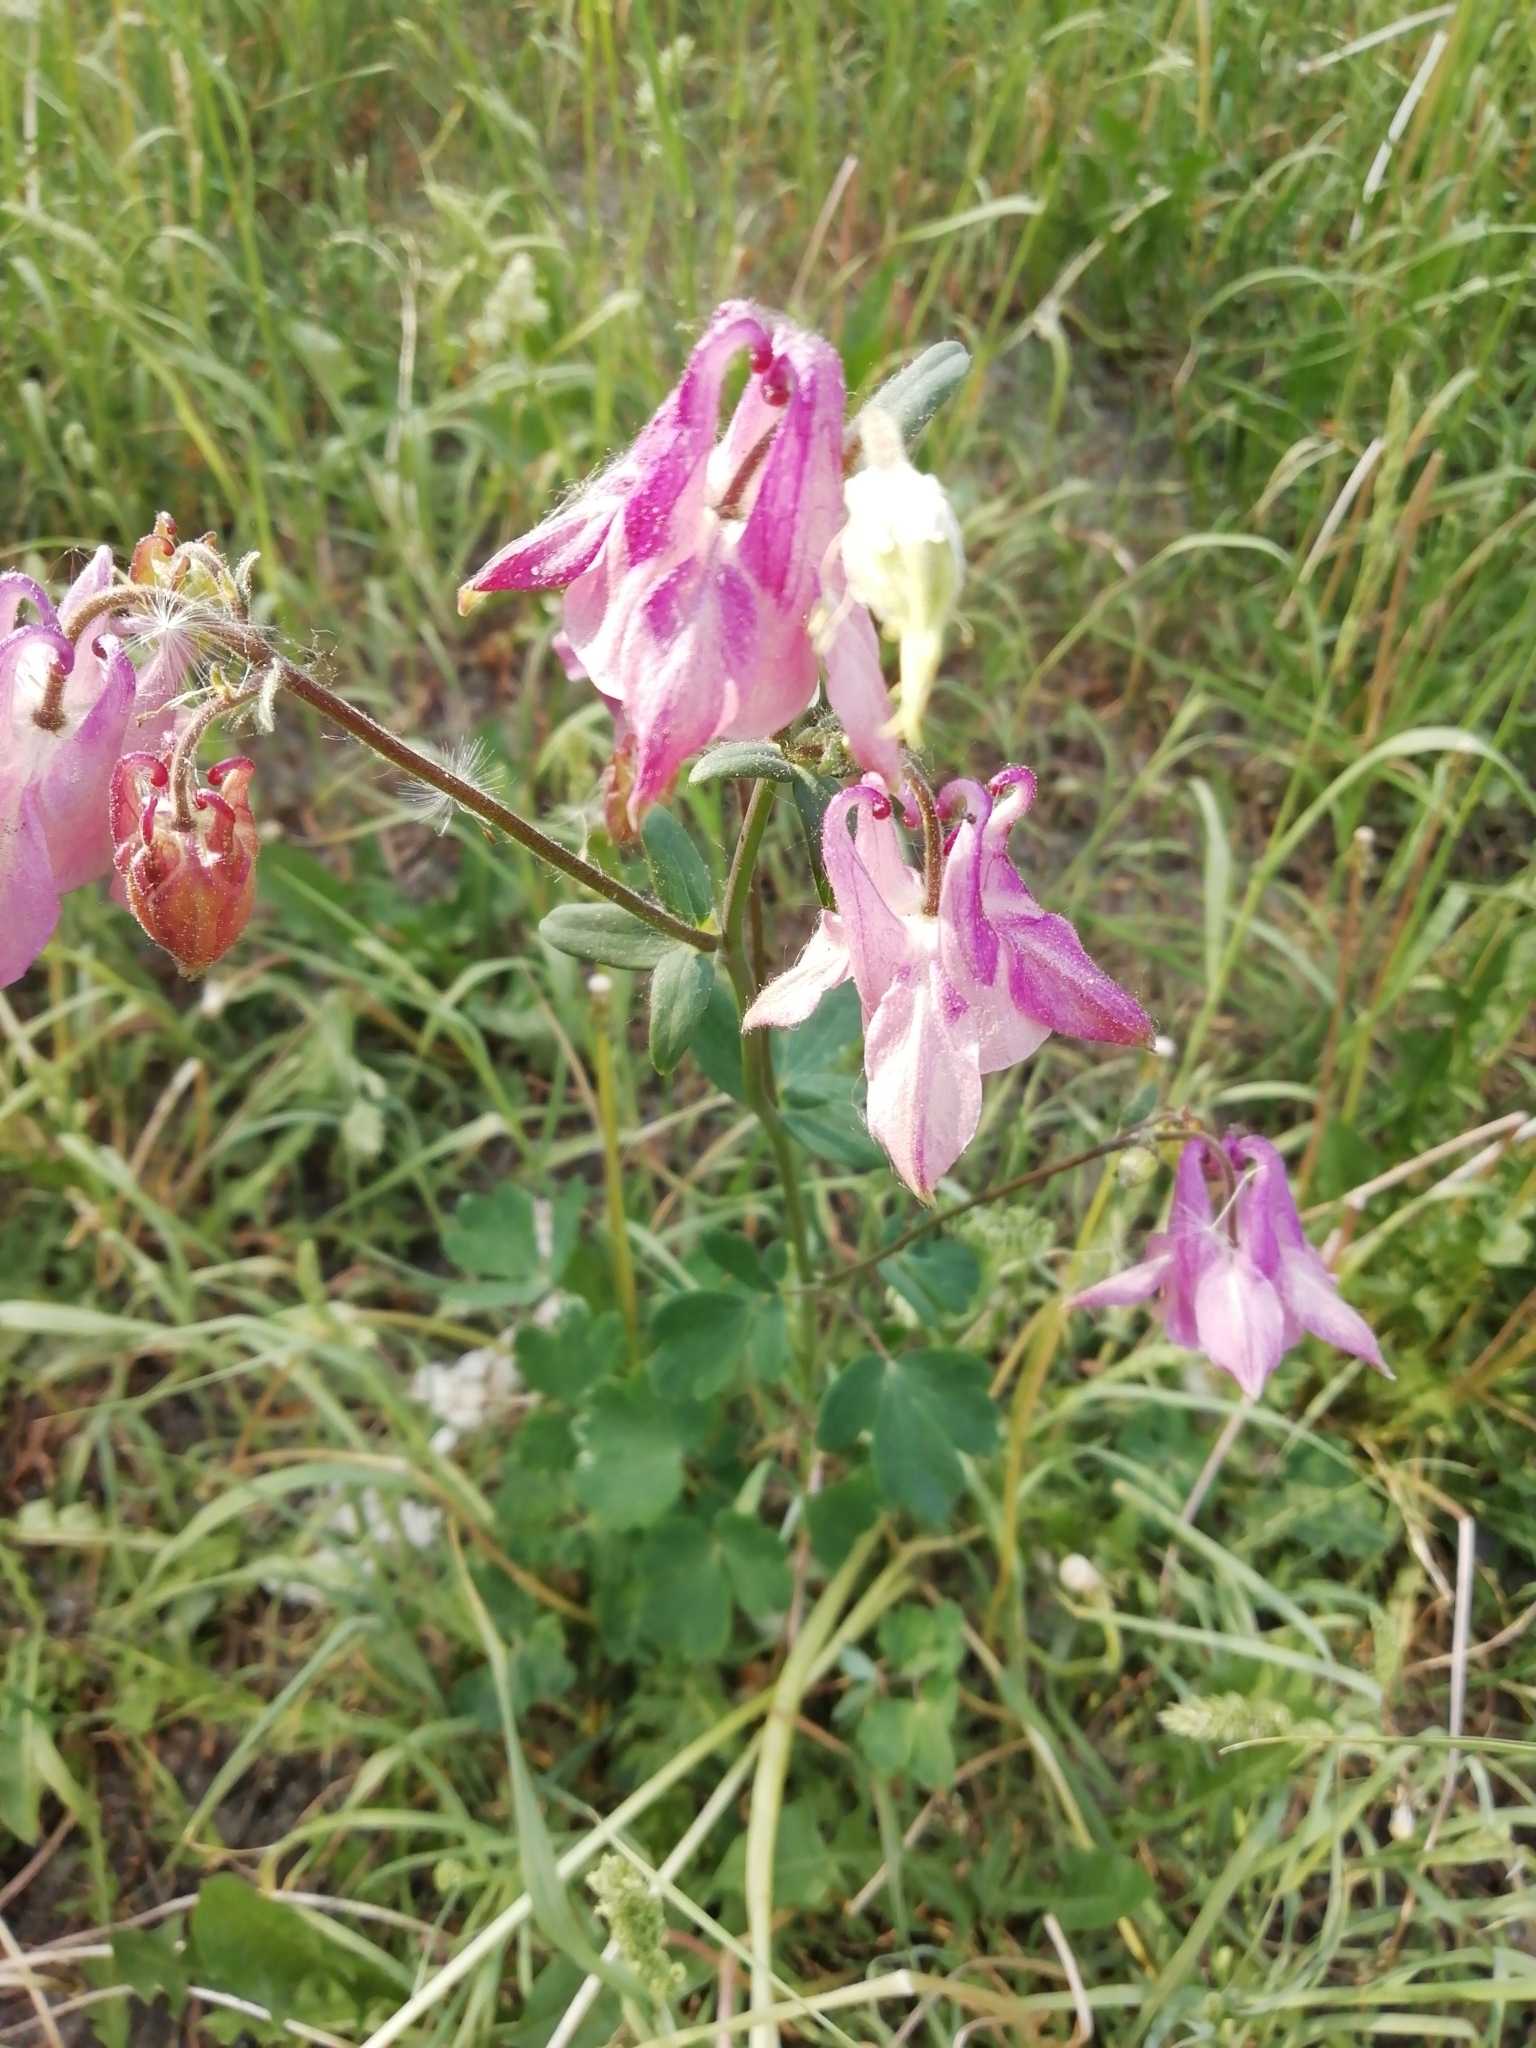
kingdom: Plantae
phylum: Tracheophyta
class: Magnoliopsida
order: Ranunculales
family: Ranunculaceae
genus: Aquilegia
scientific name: Aquilegia vulgaris
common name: Columbine
